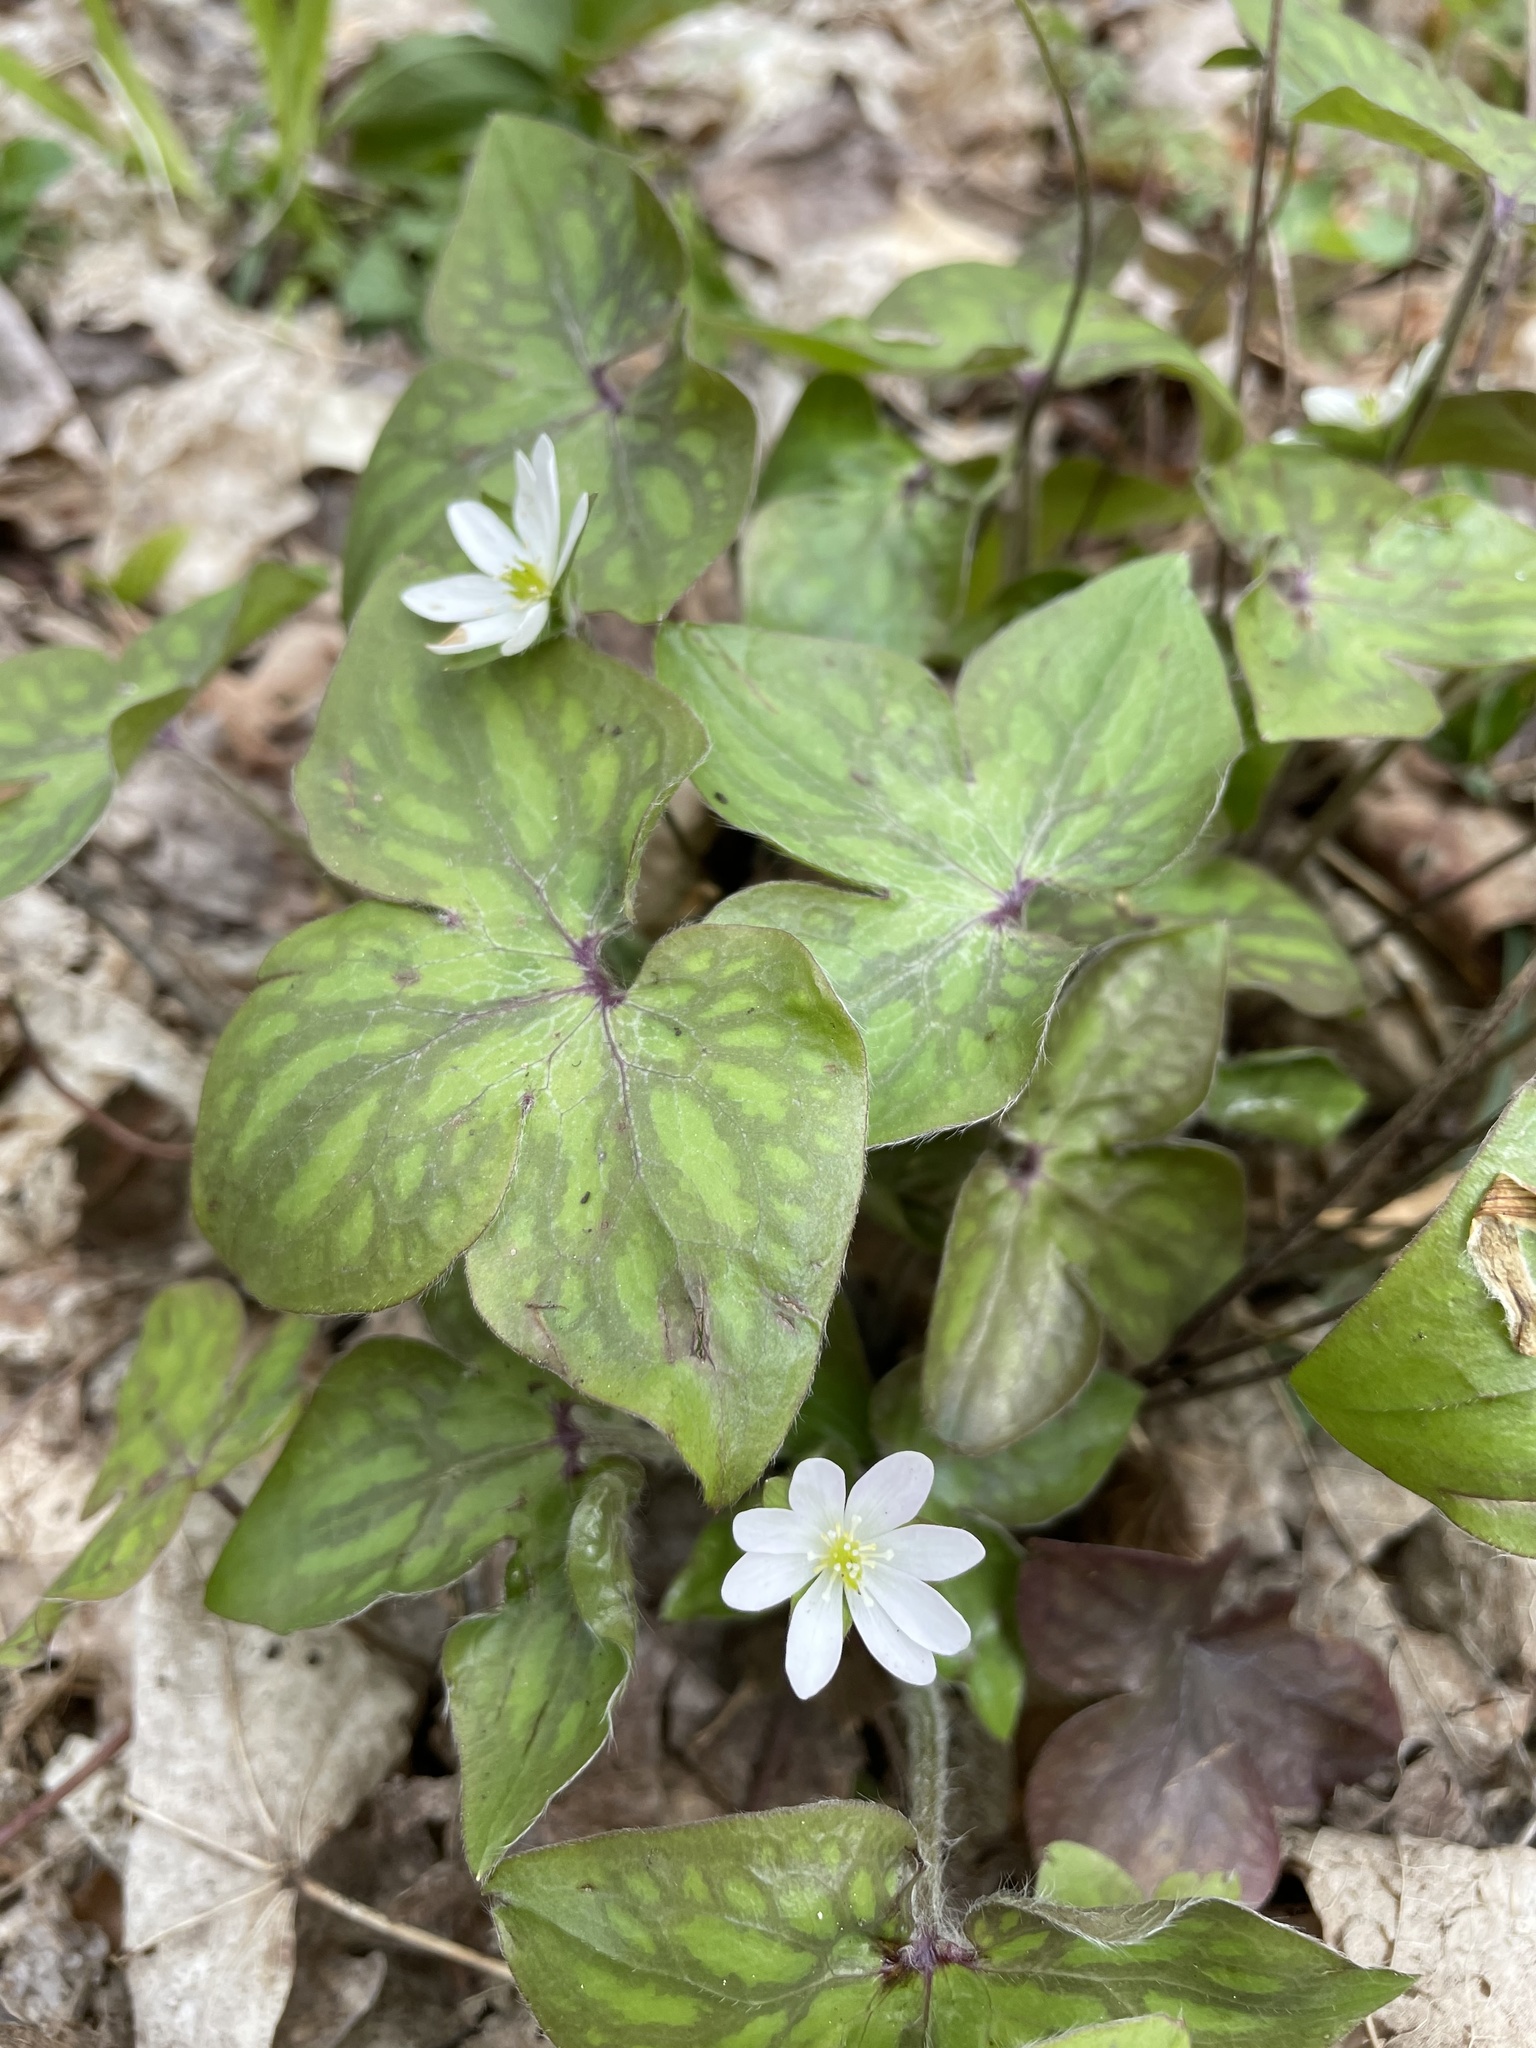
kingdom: Plantae
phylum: Tracheophyta
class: Magnoliopsida
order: Ranunculales
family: Ranunculaceae
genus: Hepatica
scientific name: Hepatica acutiloba
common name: Sharp-lobed hepatica
